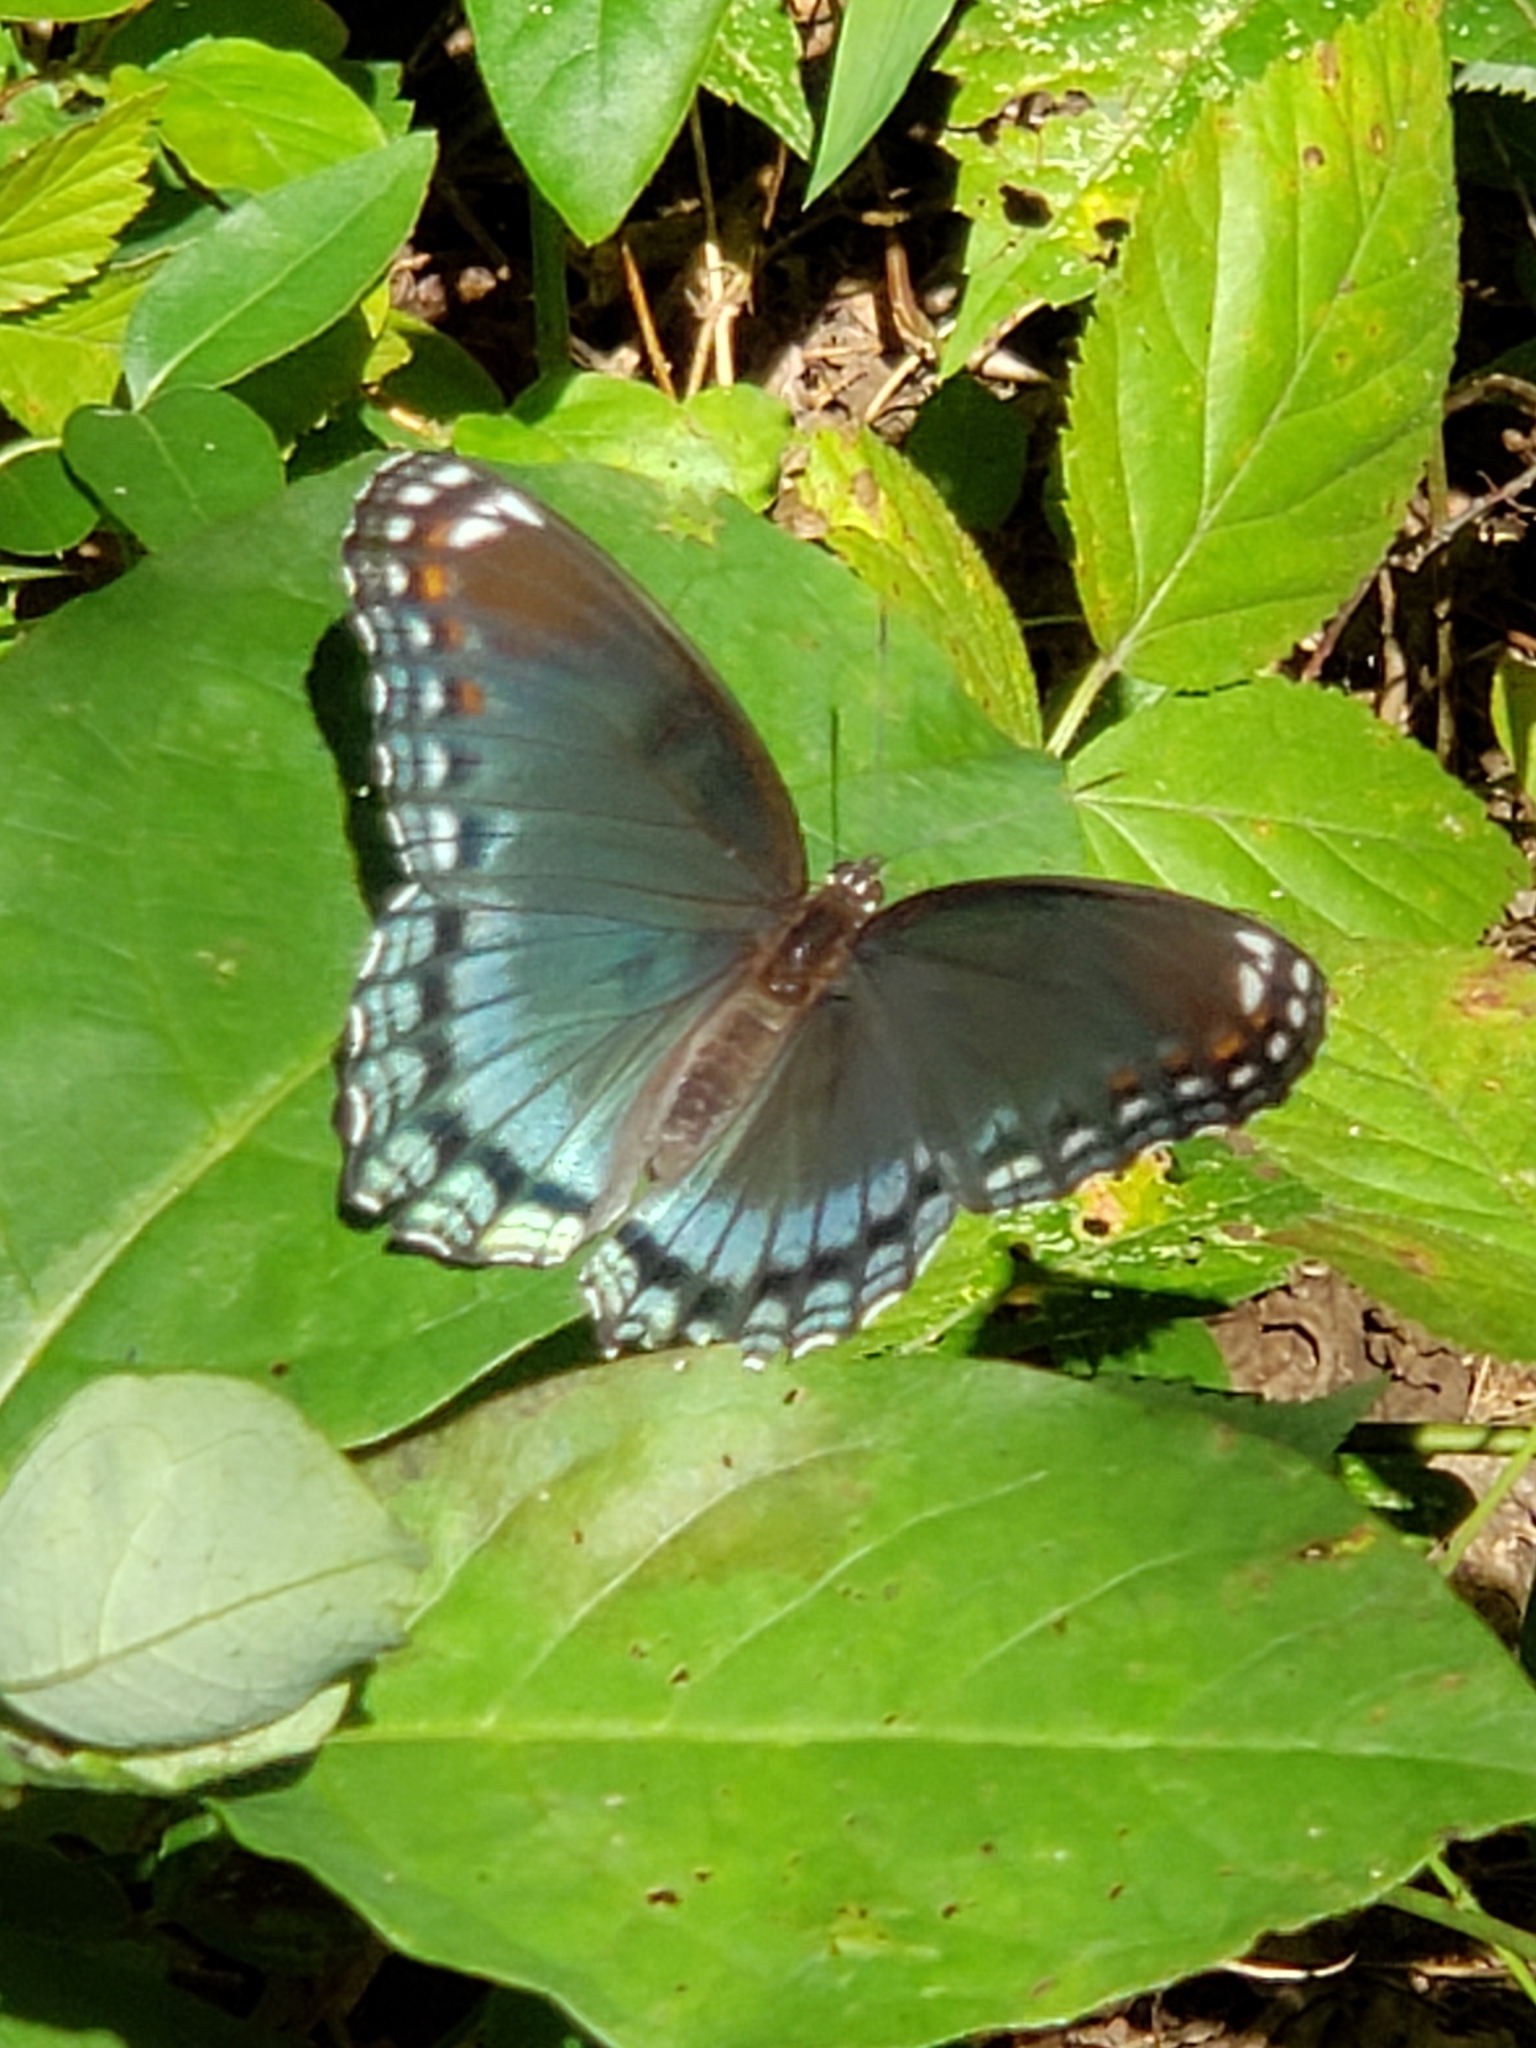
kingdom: Animalia
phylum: Arthropoda
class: Insecta
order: Lepidoptera
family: Nymphalidae
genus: Limenitis
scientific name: Limenitis arthemis
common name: Red-spotted admiral
